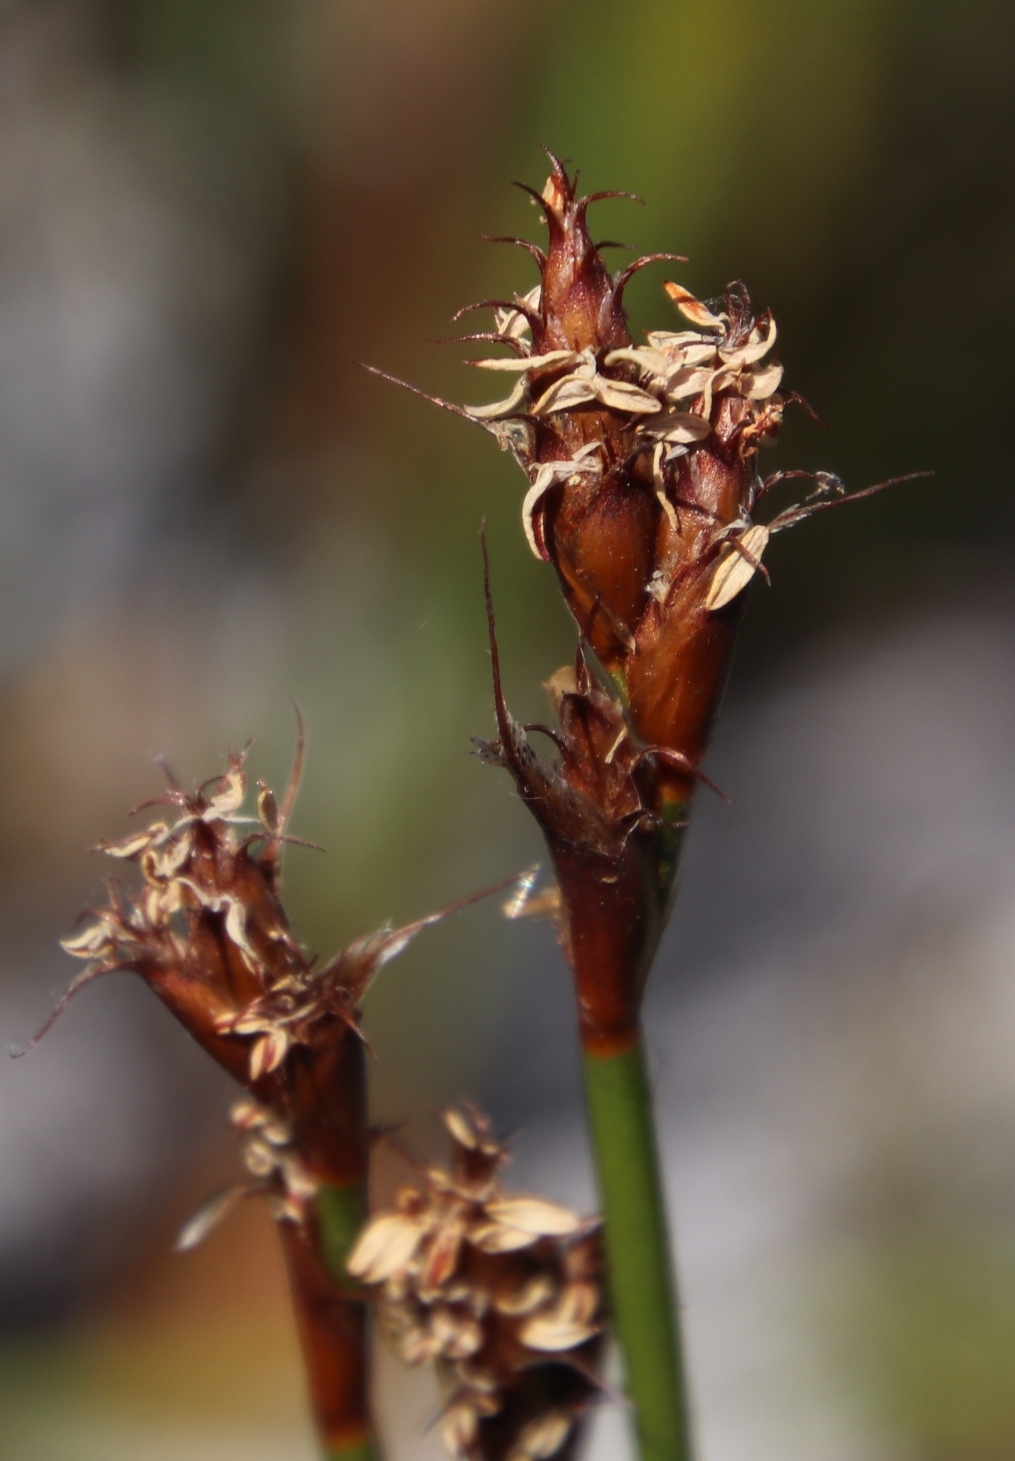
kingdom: Plantae
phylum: Tracheophyta
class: Liliopsida
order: Poales
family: Restionaceae
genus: Restio
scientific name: Restio capensis
